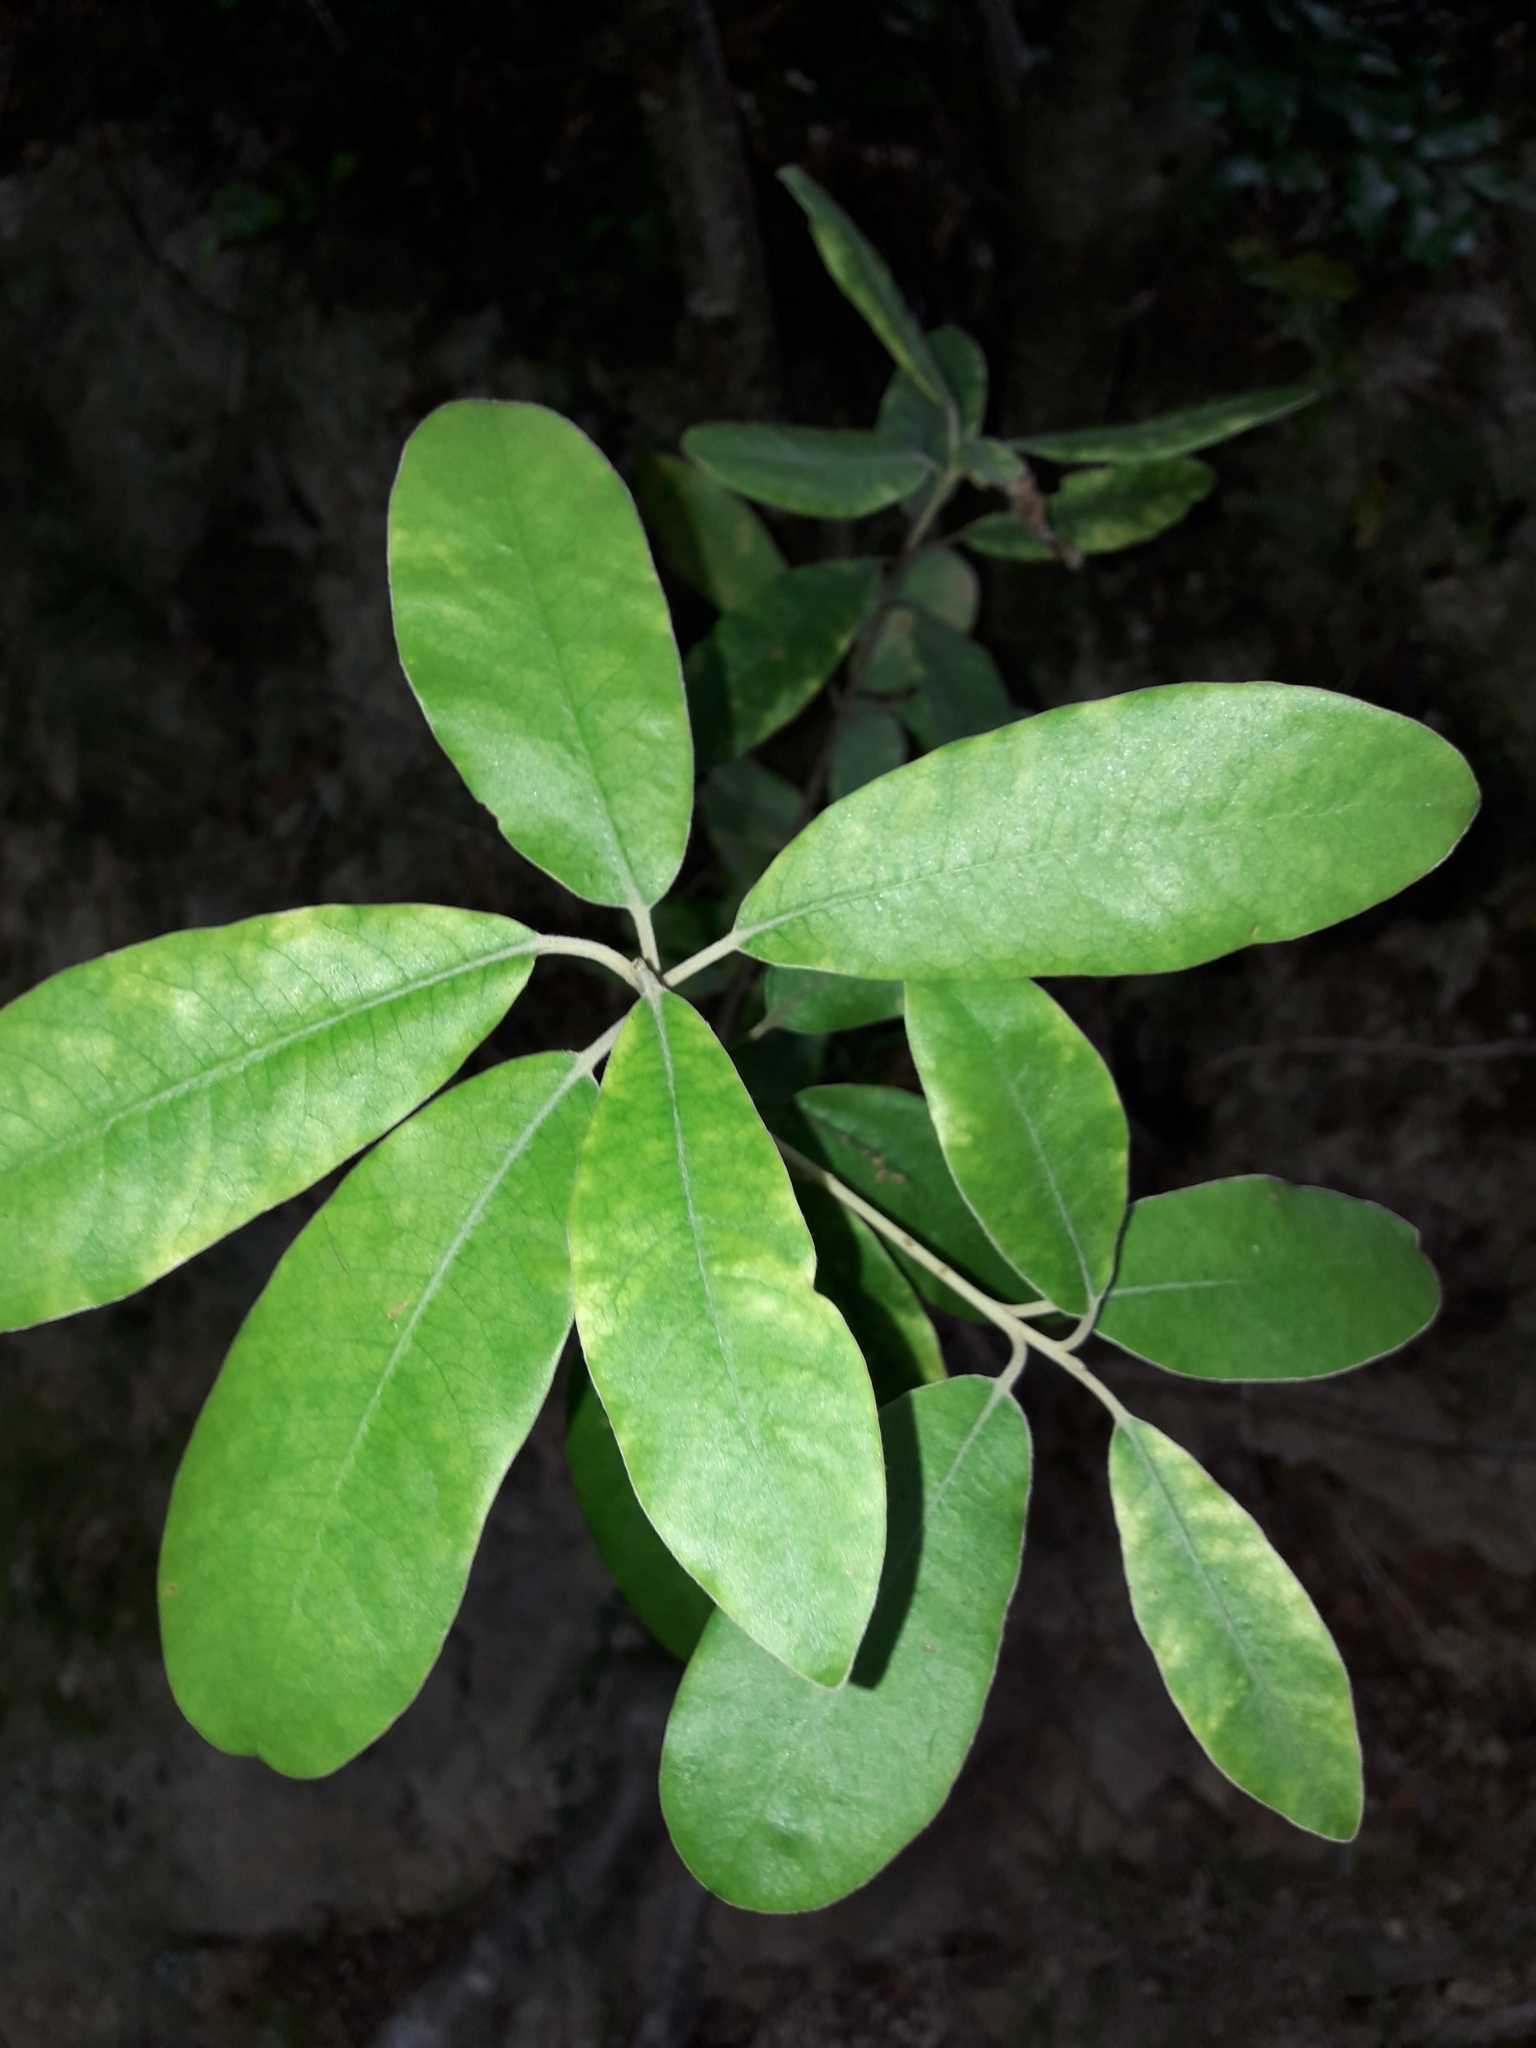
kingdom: Plantae
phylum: Tracheophyta
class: Magnoliopsida
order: Apiales
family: Pittosporaceae
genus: Pittosporum
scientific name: Pittosporum ralphii
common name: Ralph's desertwillow
